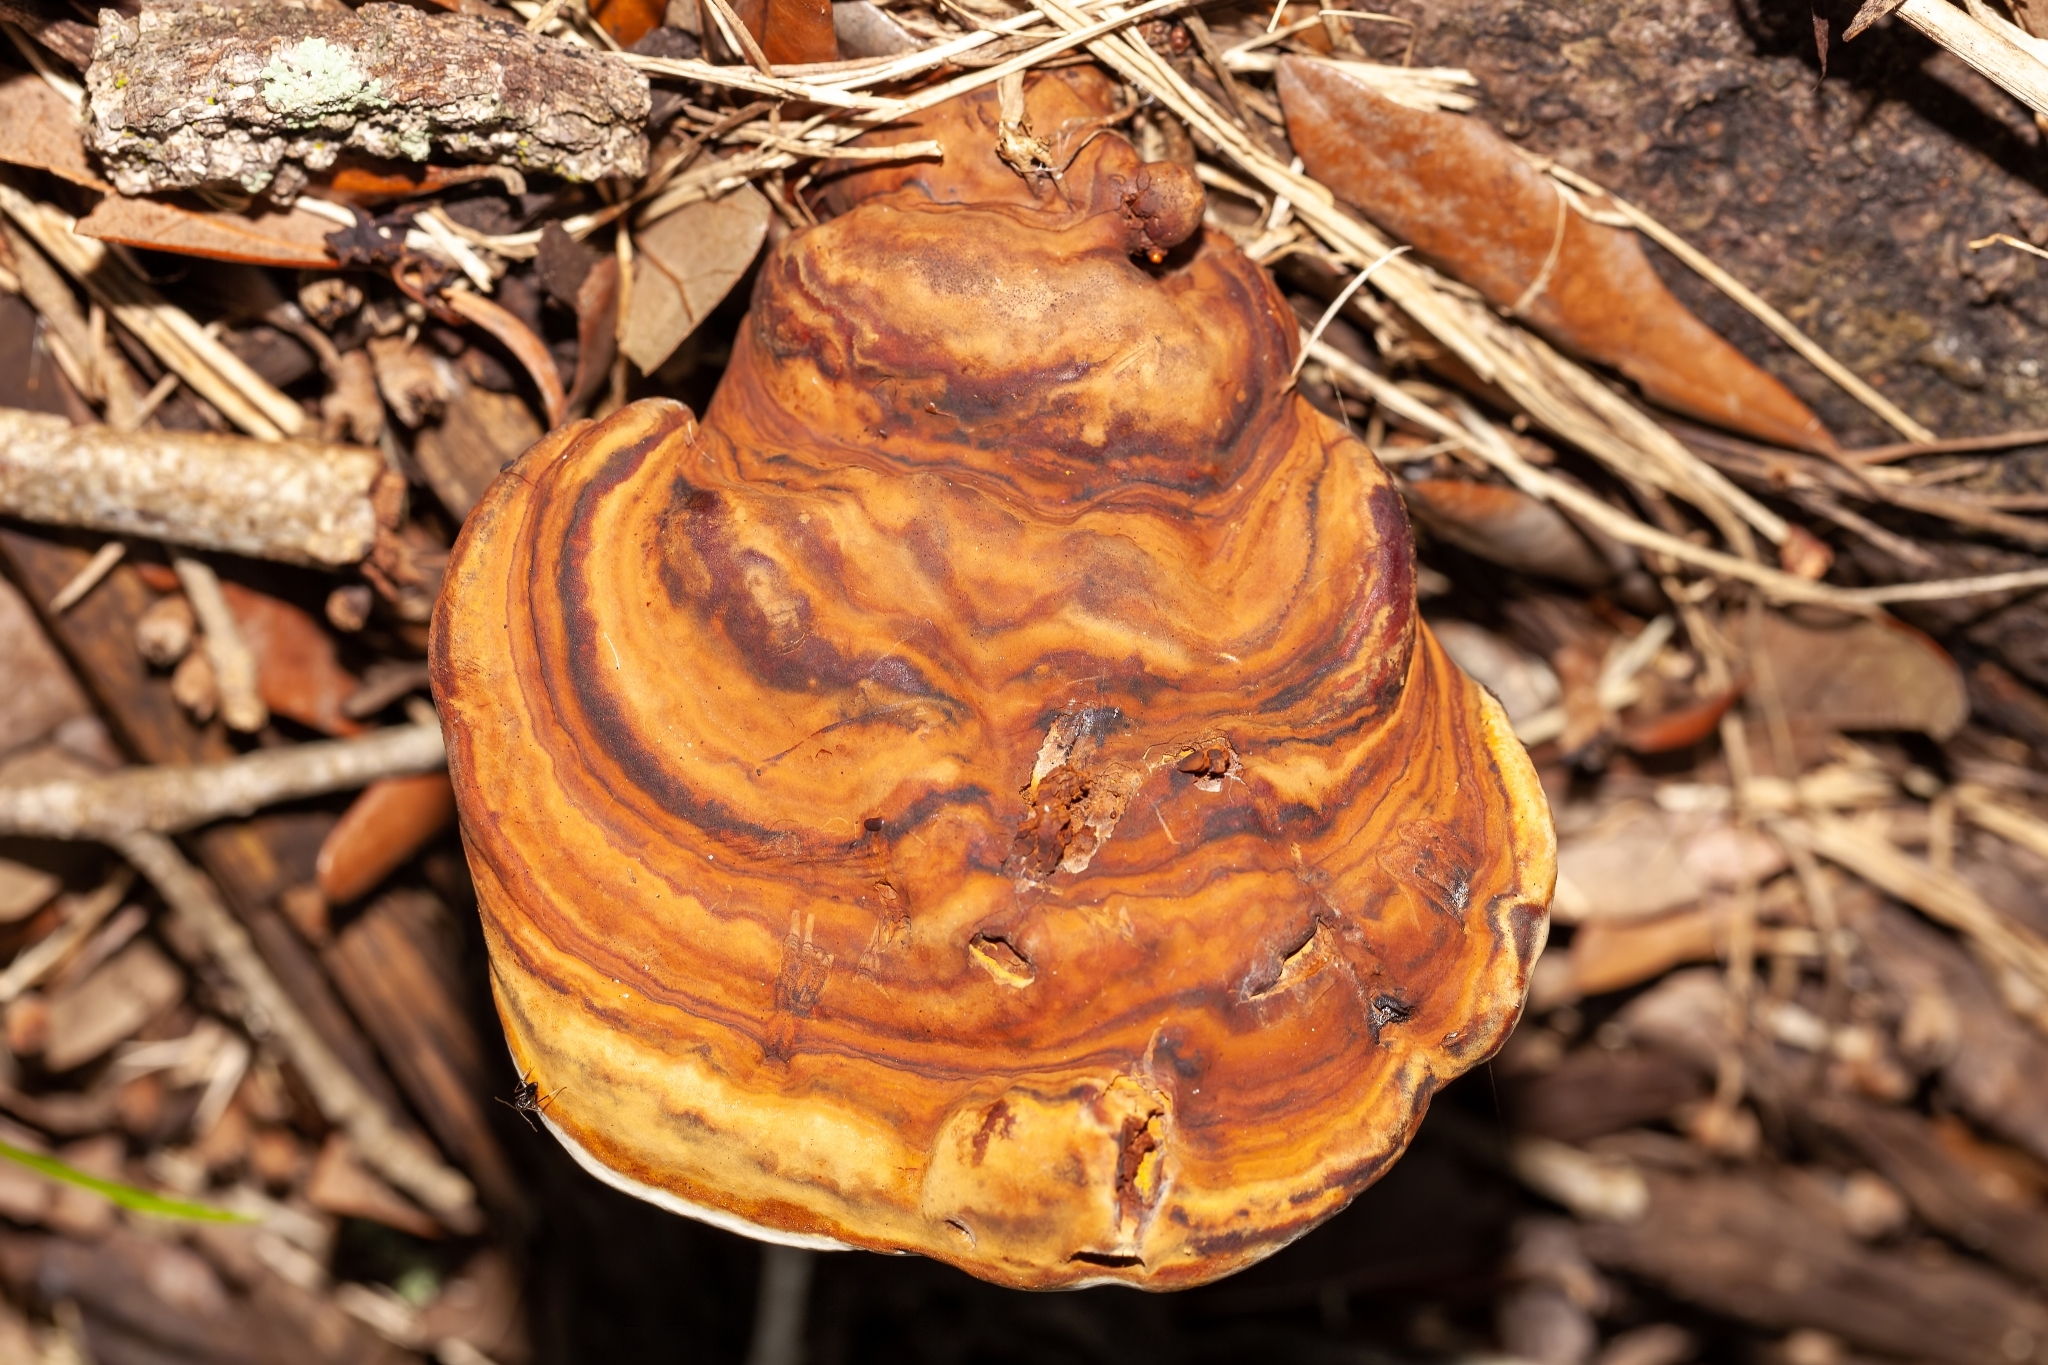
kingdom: Fungi
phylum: Basidiomycota
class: Agaricomycetes
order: Polyporales
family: Polyporaceae
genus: Ganoderma
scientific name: Ganoderma zonatum
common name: Ganoderma butt rot
